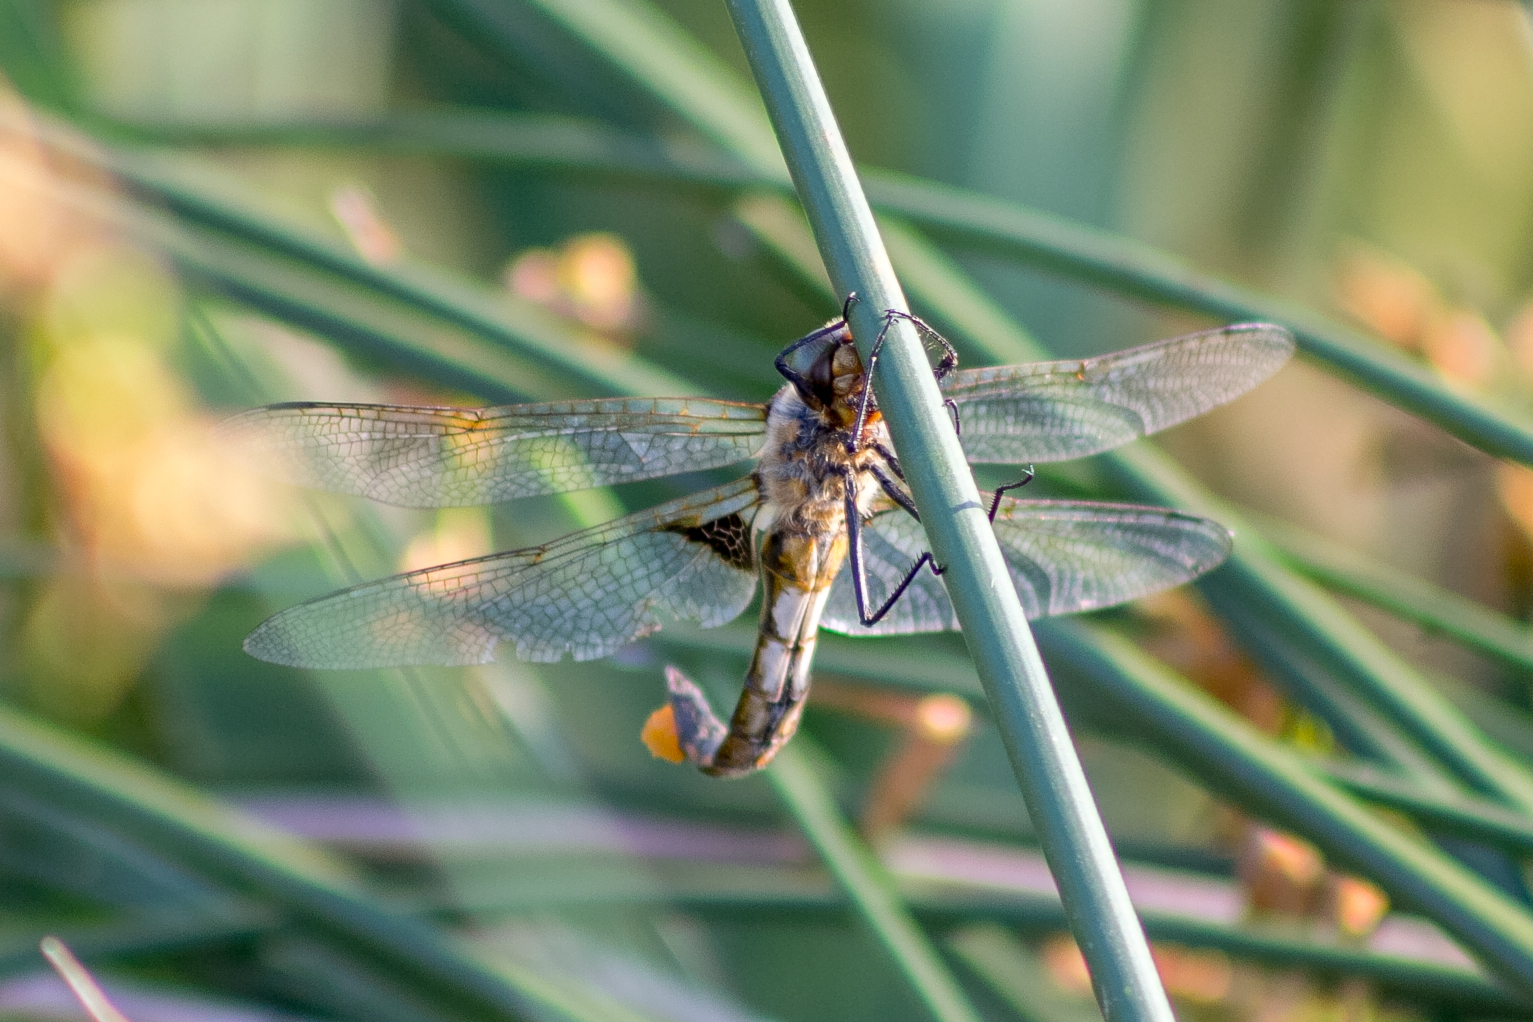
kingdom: Animalia
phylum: Arthropoda
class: Insecta
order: Odonata
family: Corduliidae
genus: Epitheca
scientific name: Epitheca bimaculata
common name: Eurasian baskettail
